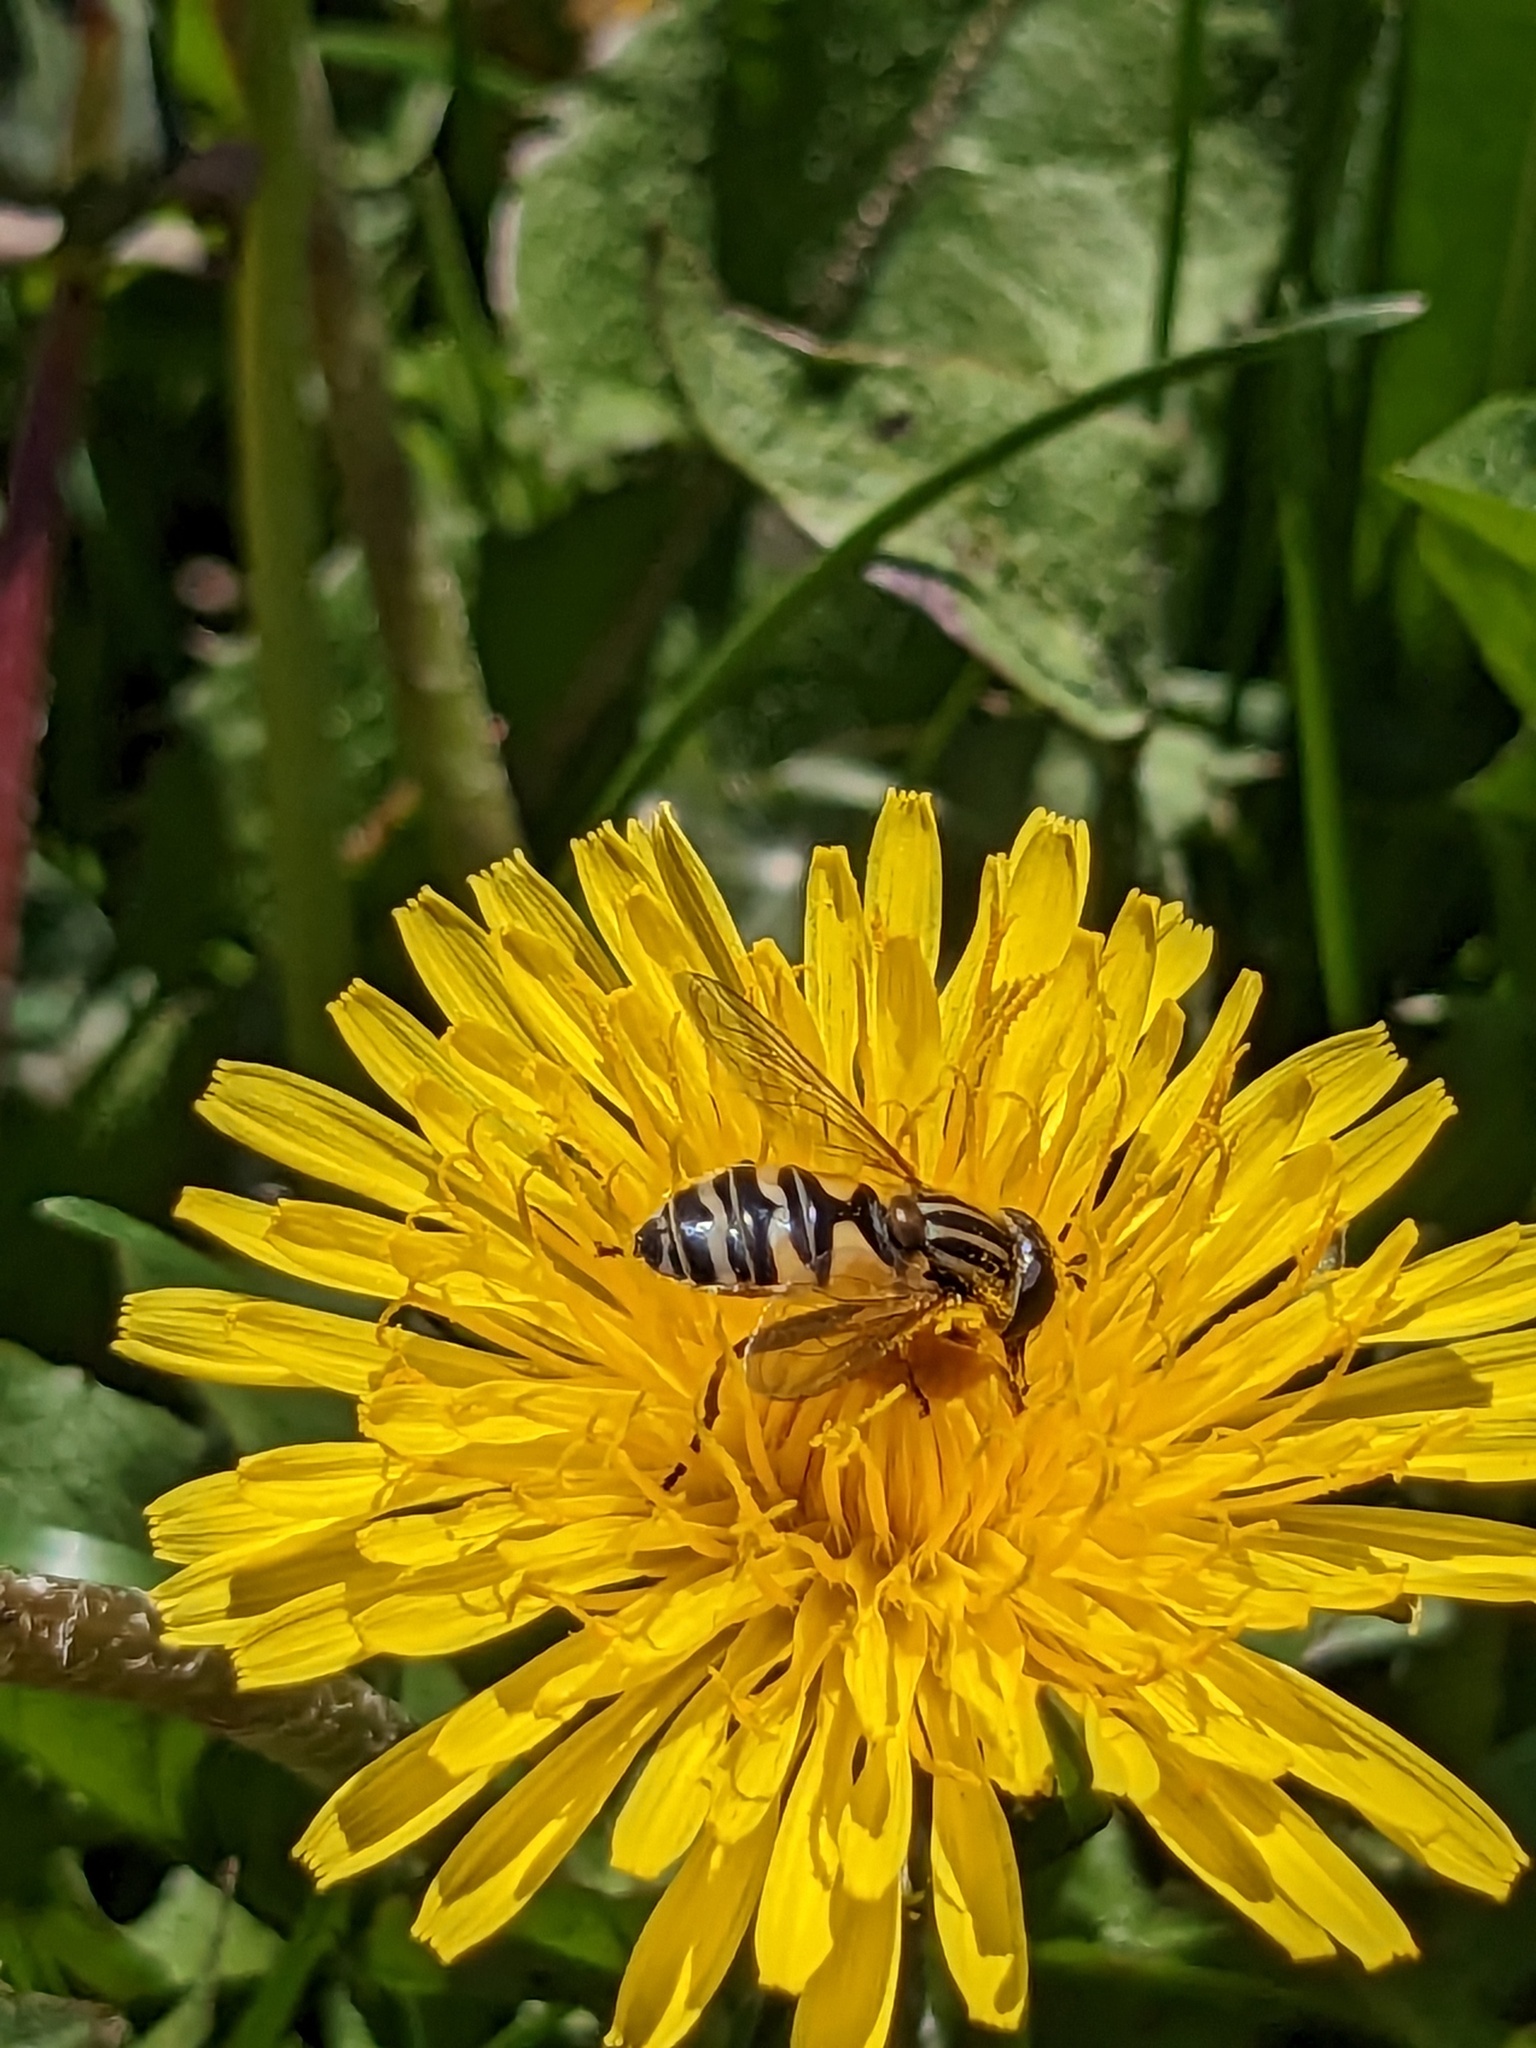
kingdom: Animalia
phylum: Arthropoda
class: Insecta
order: Diptera
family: Syrphidae
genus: Helophilus
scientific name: Helophilus latifrons
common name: Broad-headed marsh fly
